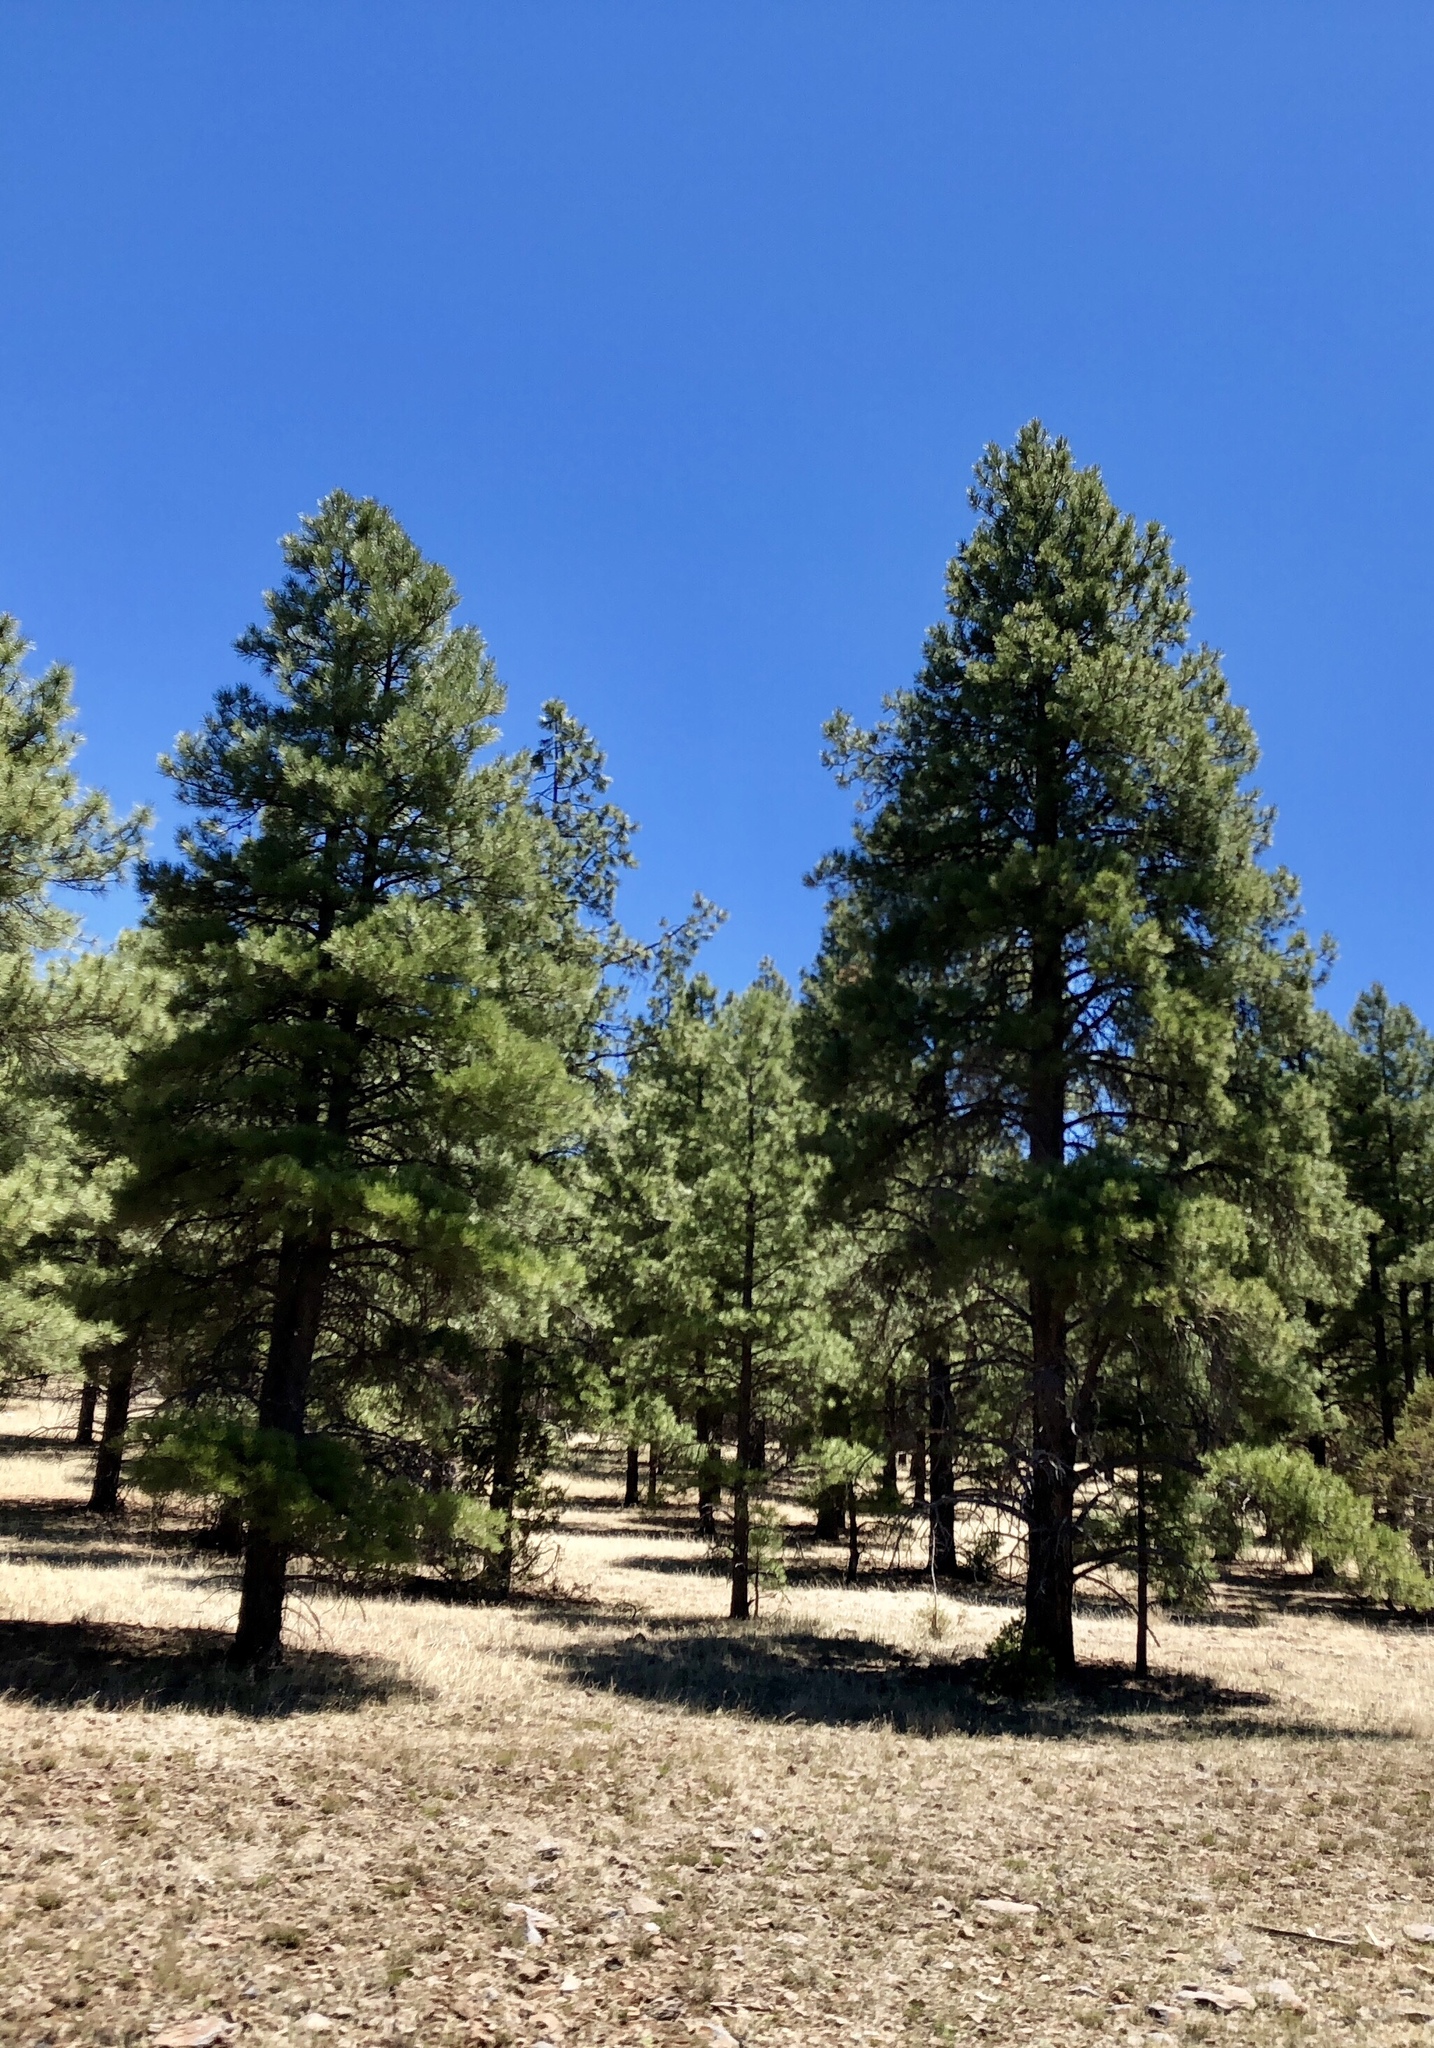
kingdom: Plantae
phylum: Tracheophyta
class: Pinopsida
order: Pinales
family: Pinaceae
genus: Pinus
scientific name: Pinus ponderosa
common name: Western yellow-pine
